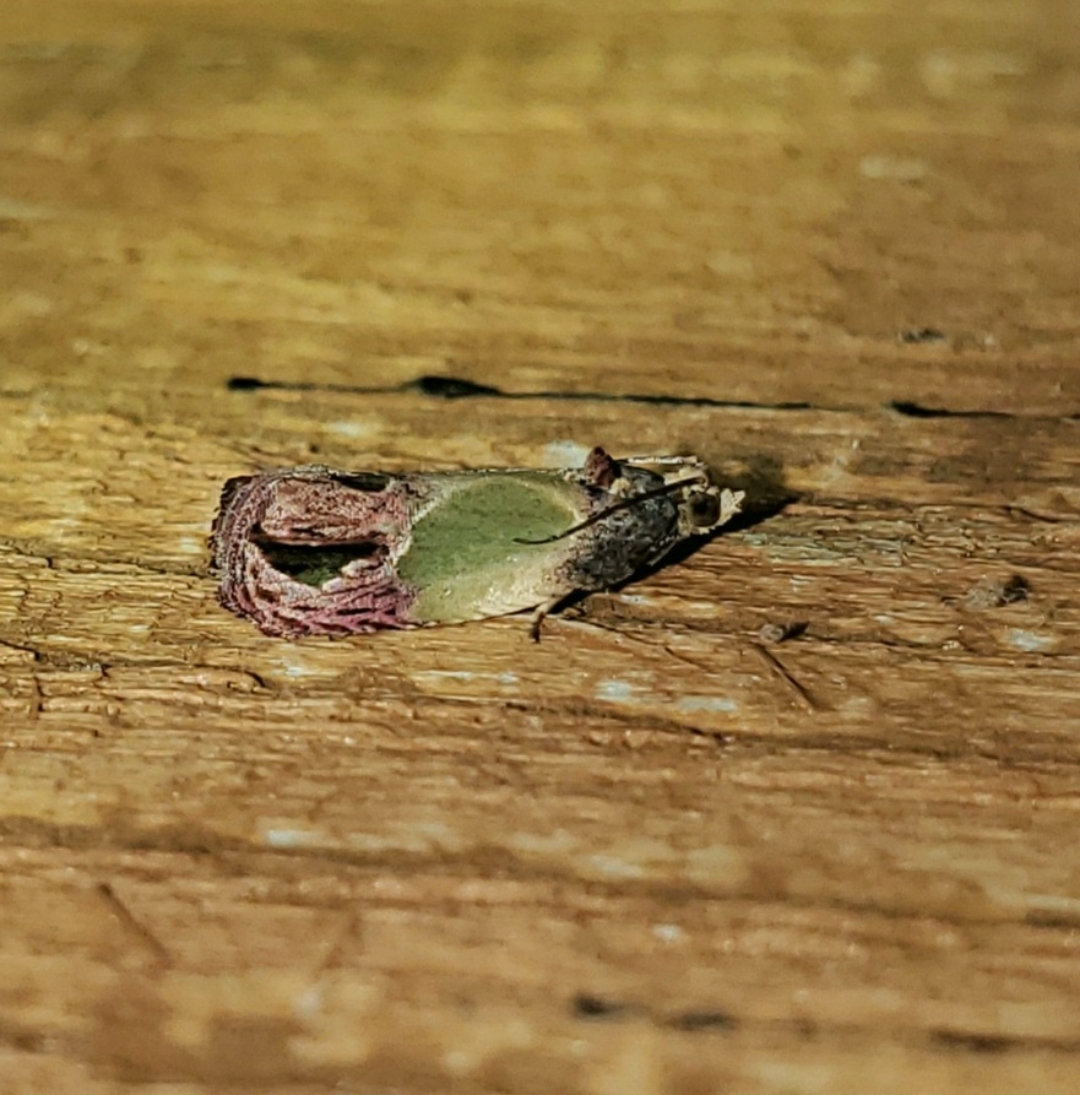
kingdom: Animalia
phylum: Arthropoda
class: Insecta
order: Lepidoptera
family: Tortricidae
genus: Eumarozia
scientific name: Eumarozia malachitana
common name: Sculptured moth
